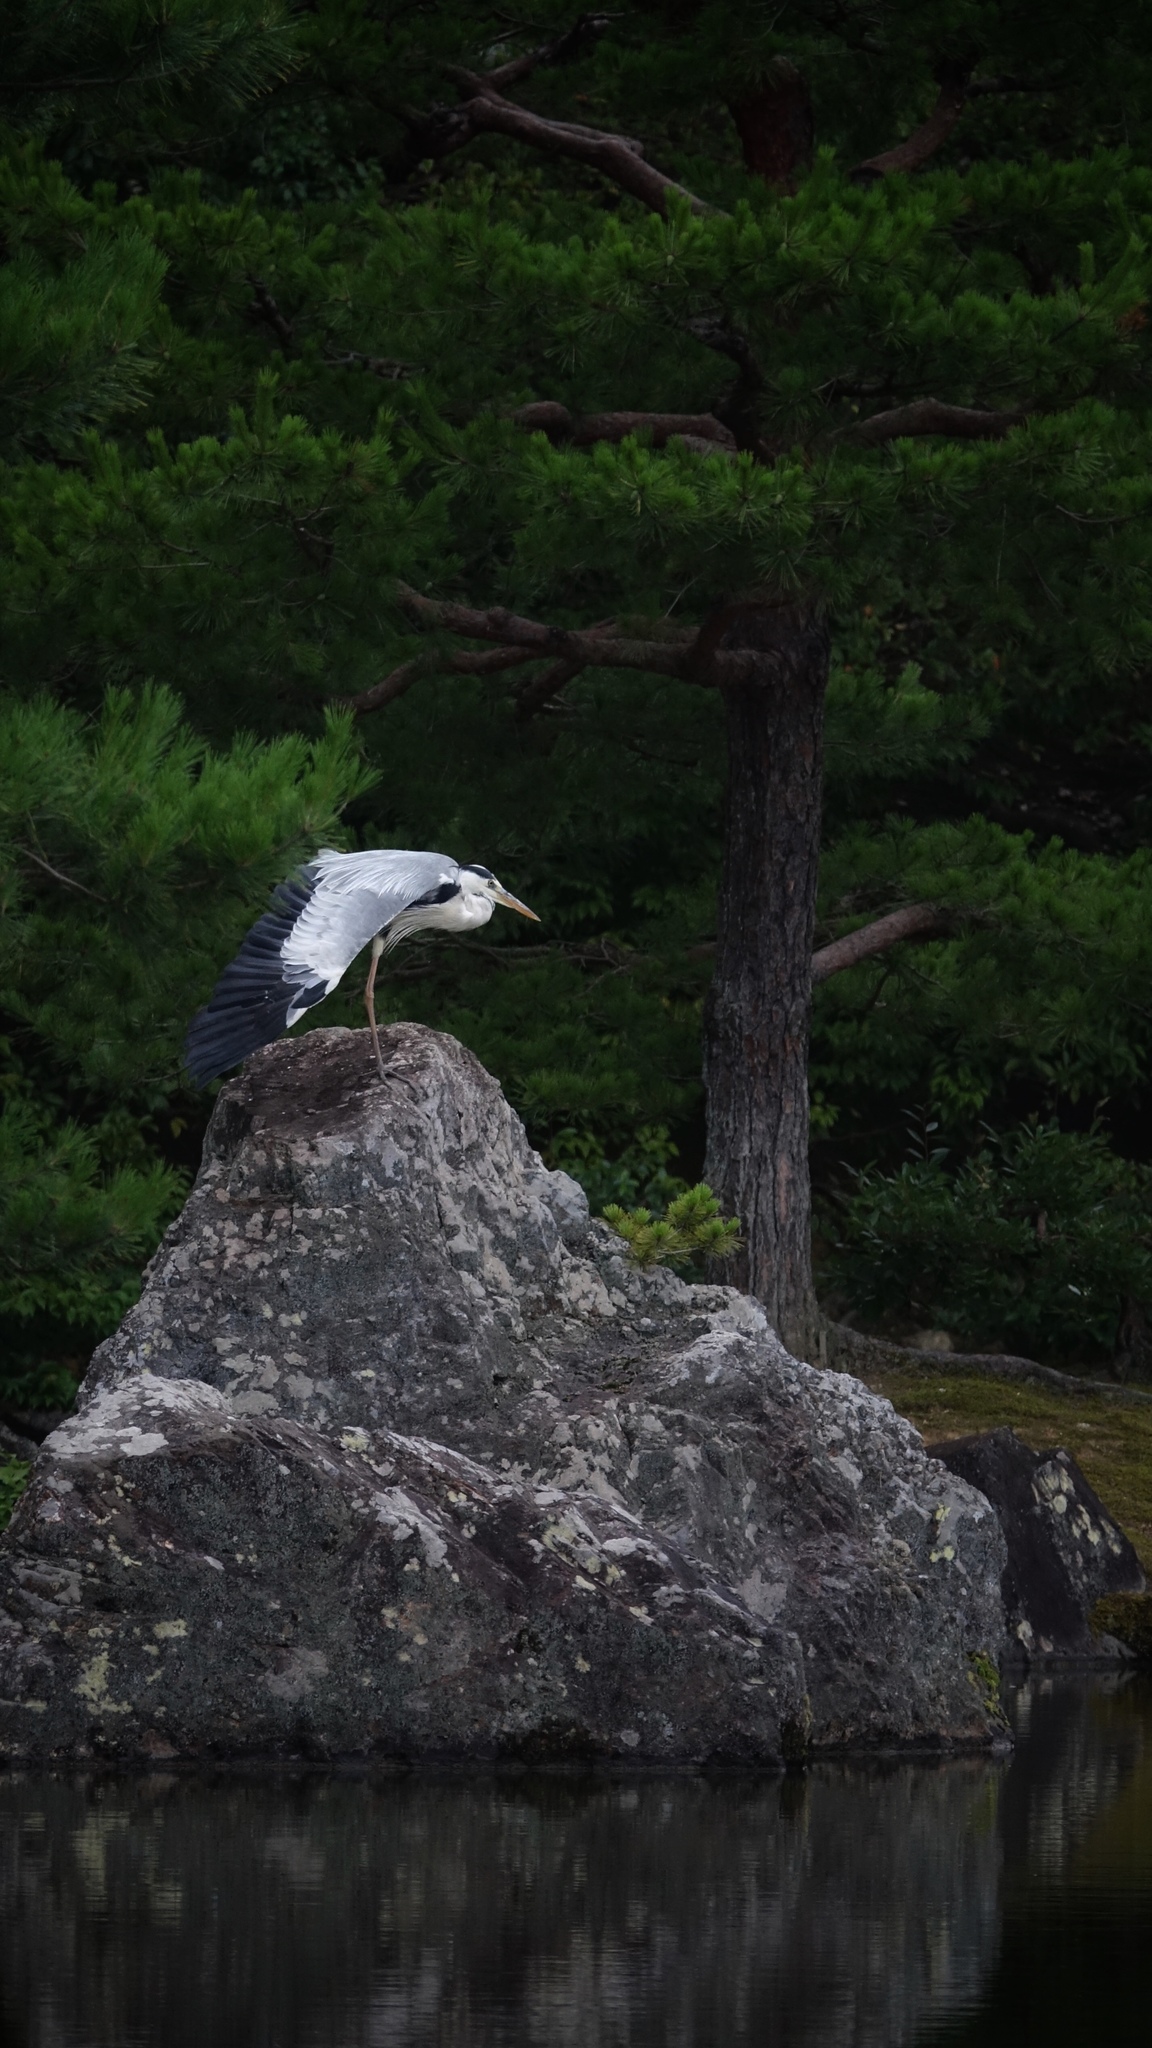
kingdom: Animalia
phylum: Chordata
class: Aves
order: Pelecaniformes
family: Ardeidae
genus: Ardea
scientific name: Ardea cinerea
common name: Grey heron
